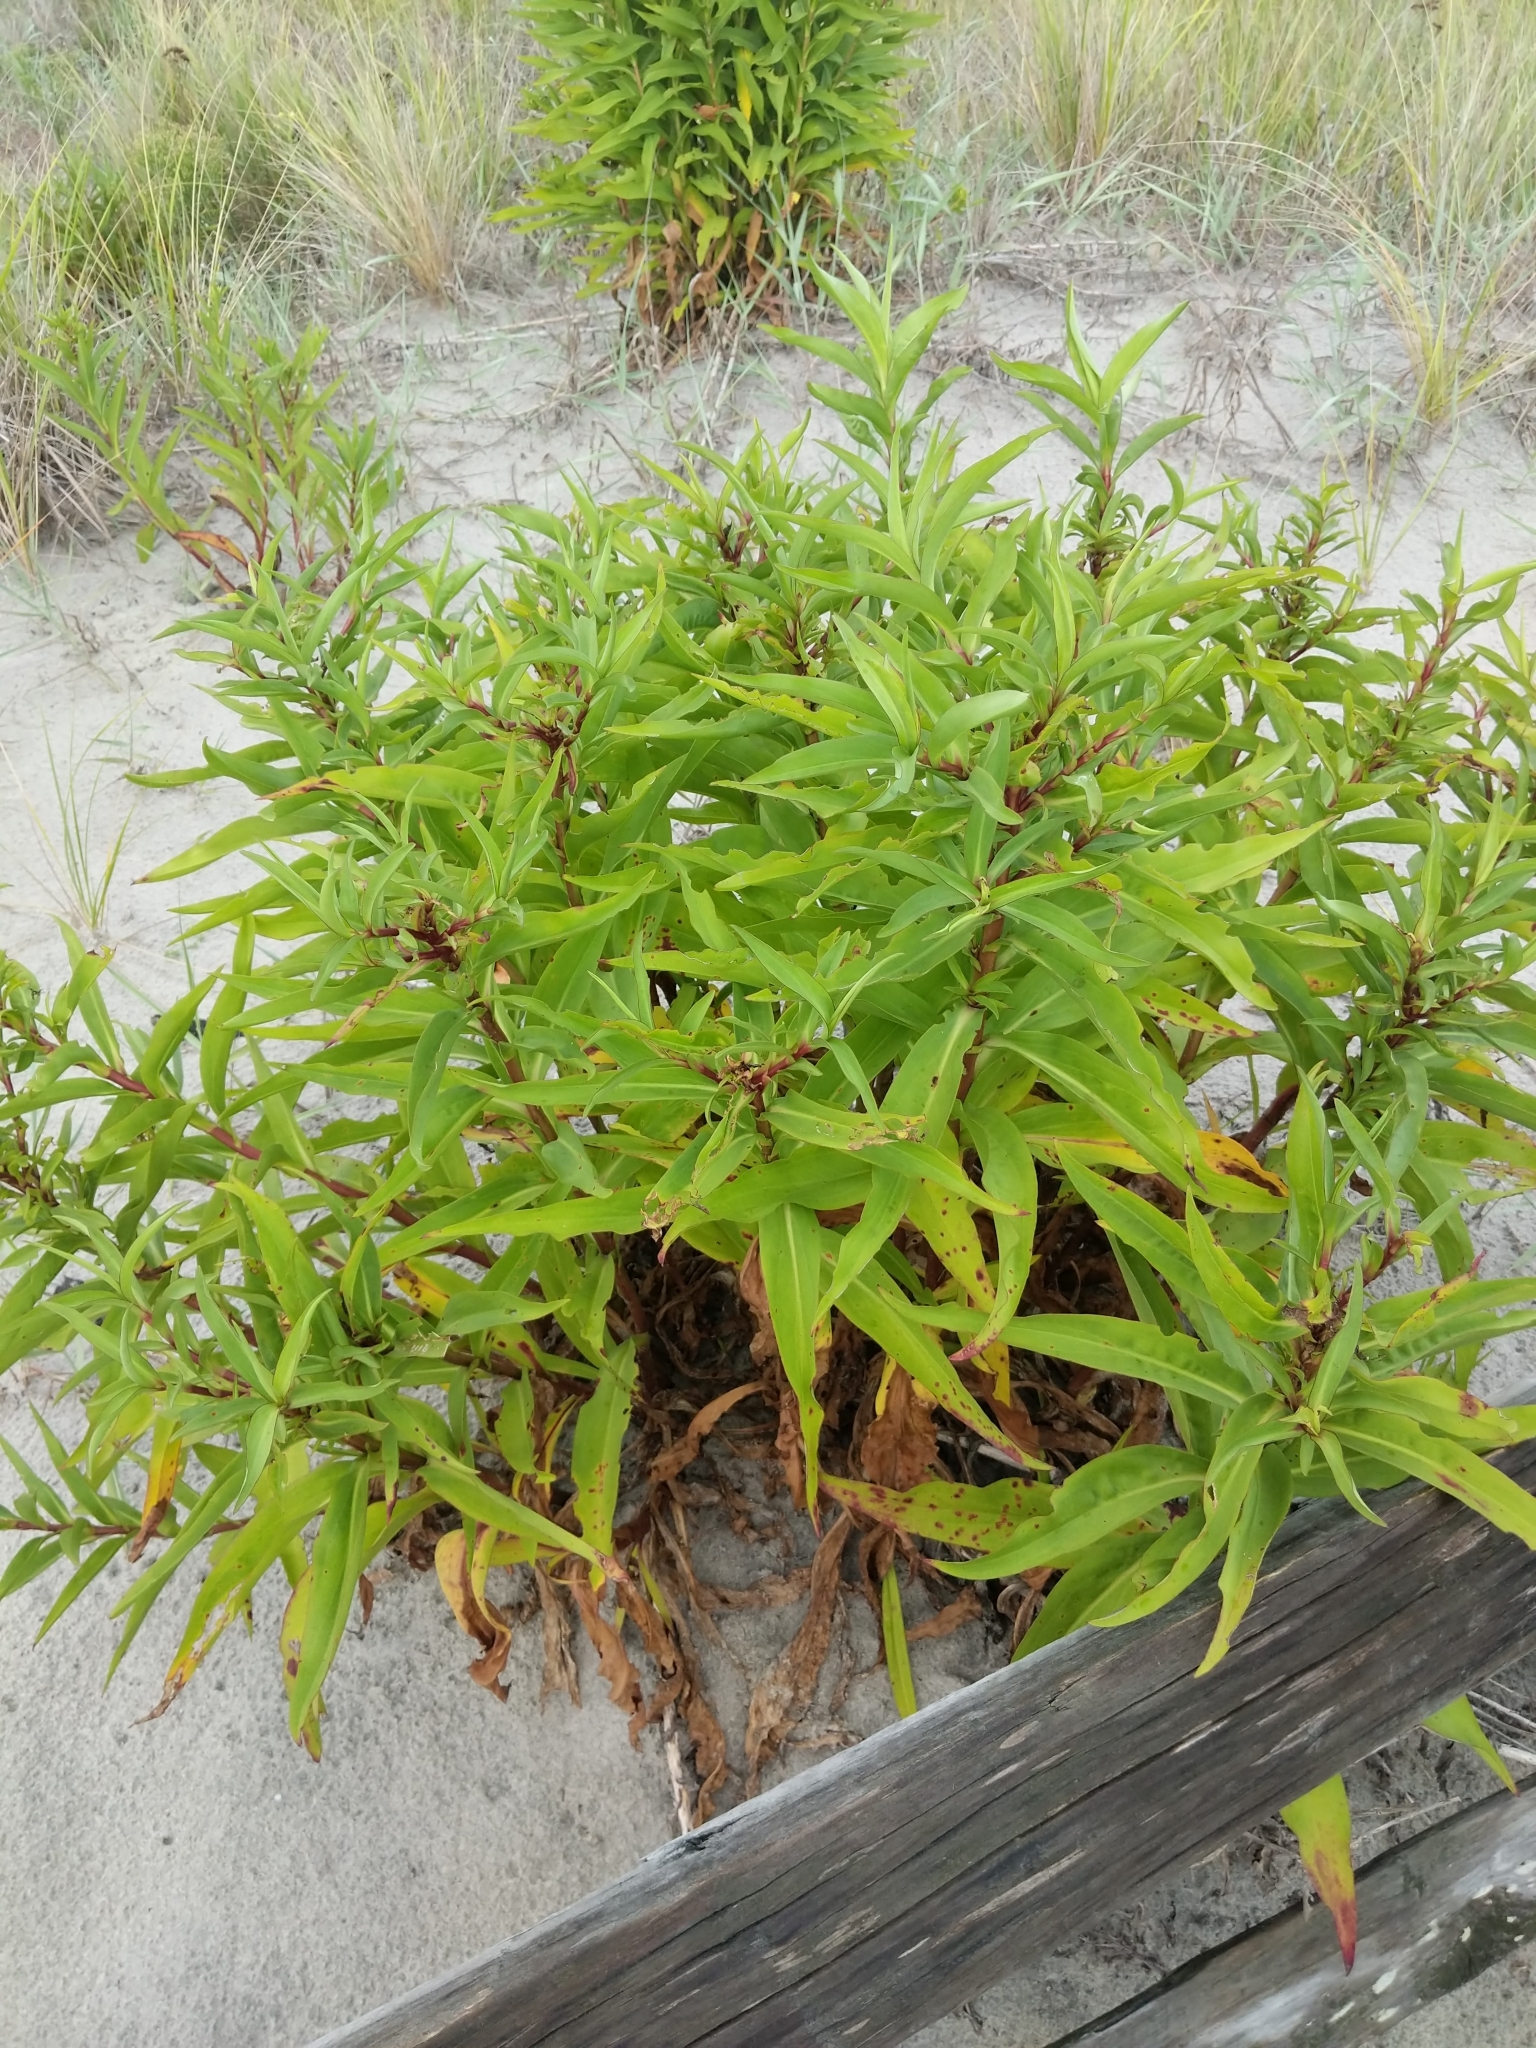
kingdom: Plantae
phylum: Tracheophyta
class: Magnoliopsida
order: Asterales
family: Asteraceae
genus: Solidago
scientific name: Solidago sempervirens
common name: Salt-marsh goldenrod
